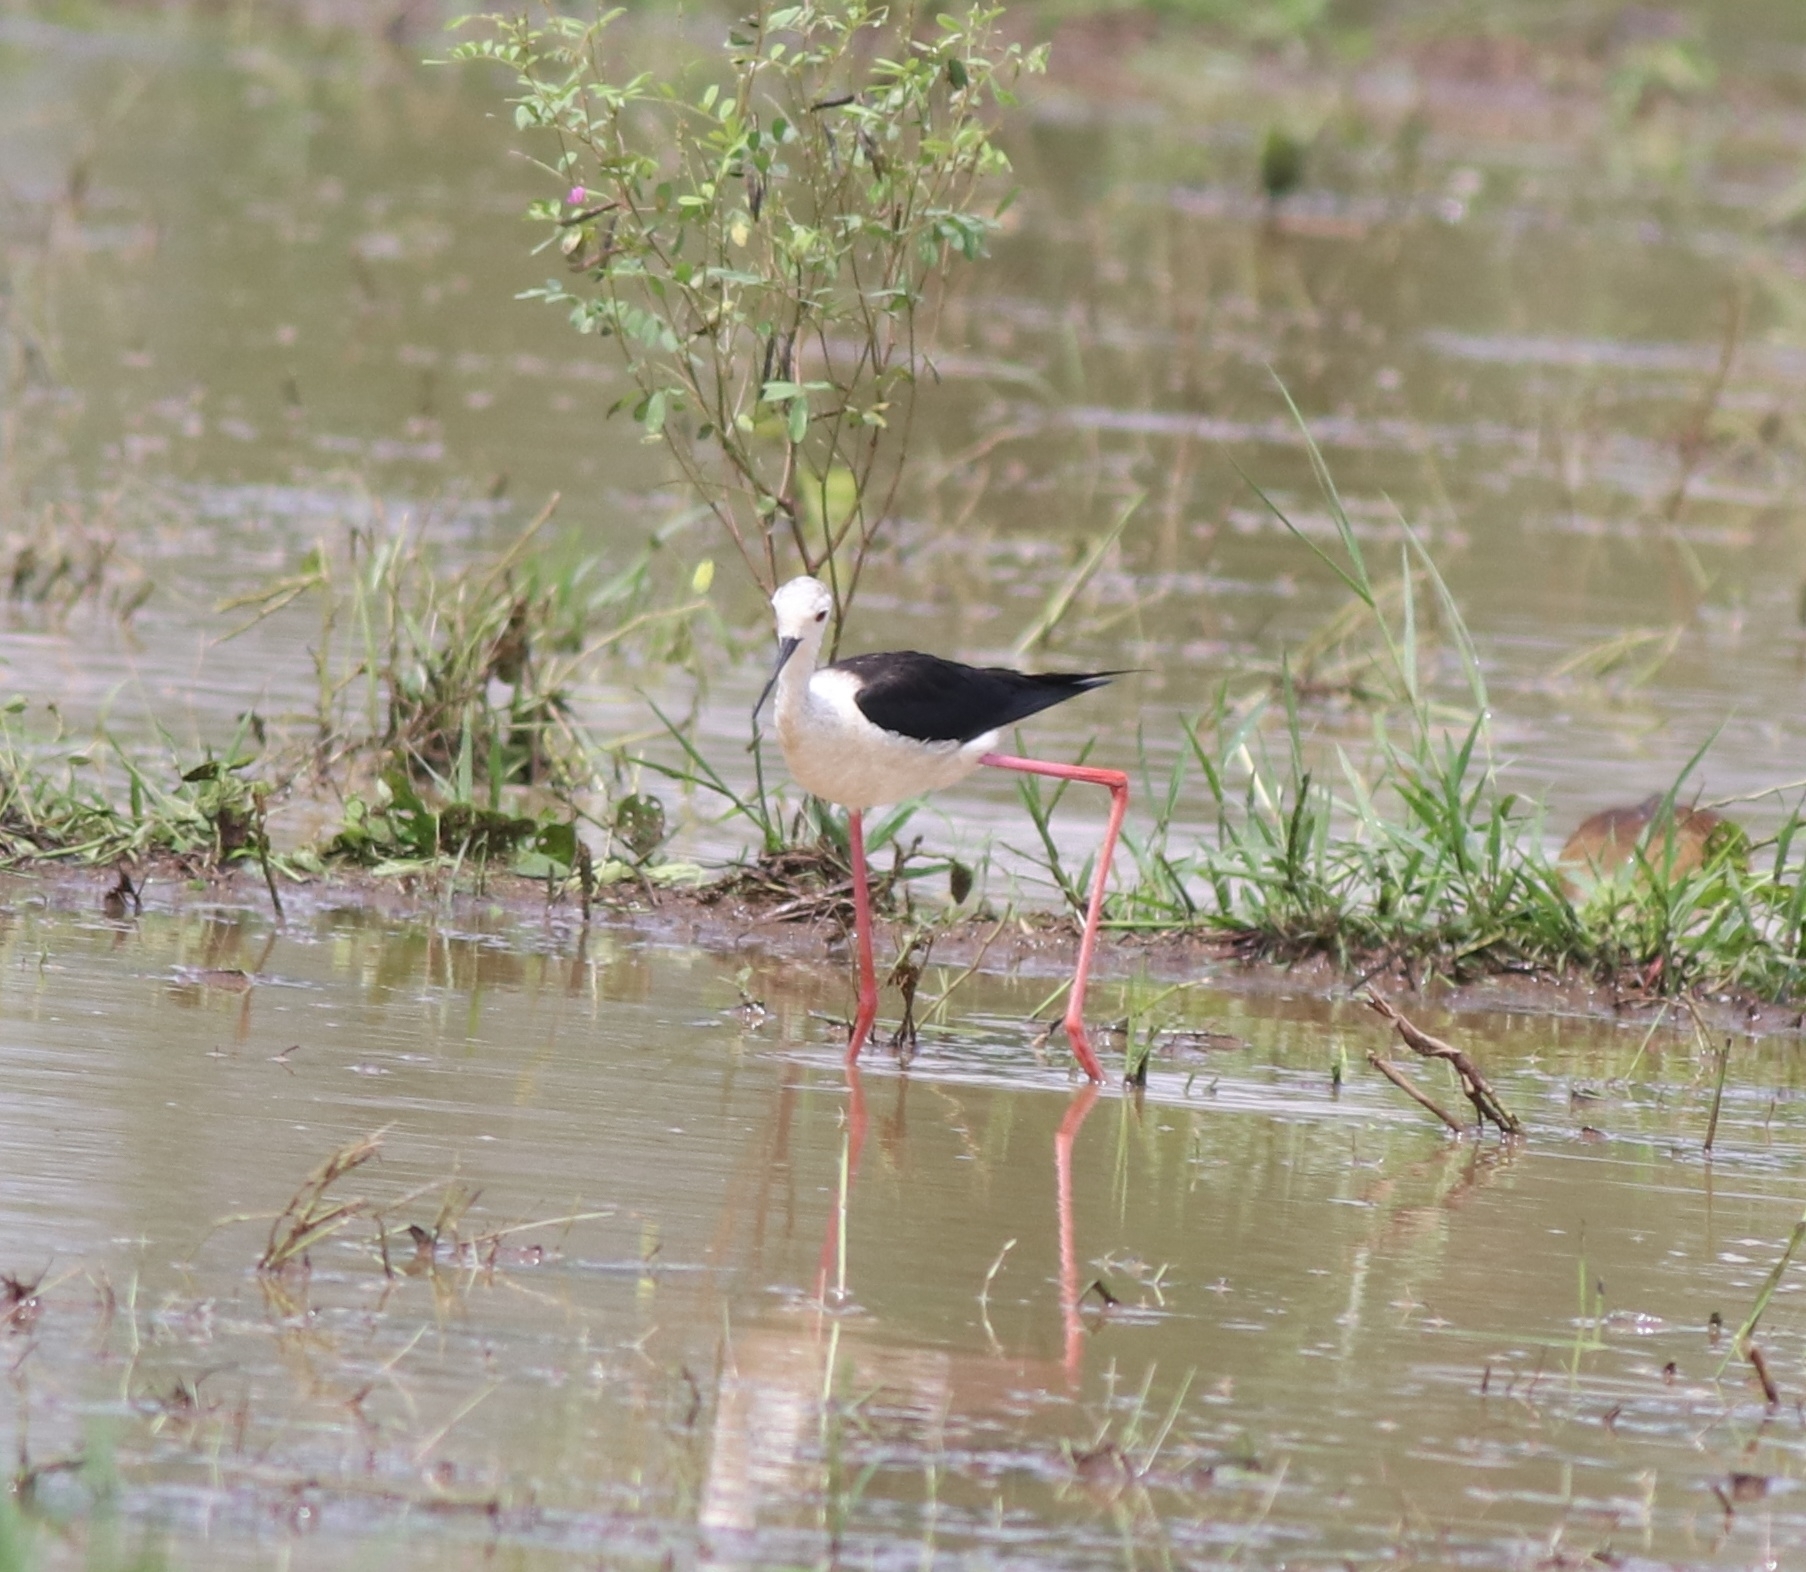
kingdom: Animalia
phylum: Chordata
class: Aves
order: Charadriiformes
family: Recurvirostridae
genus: Himantopus
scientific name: Himantopus himantopus
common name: Black-winged stilt
